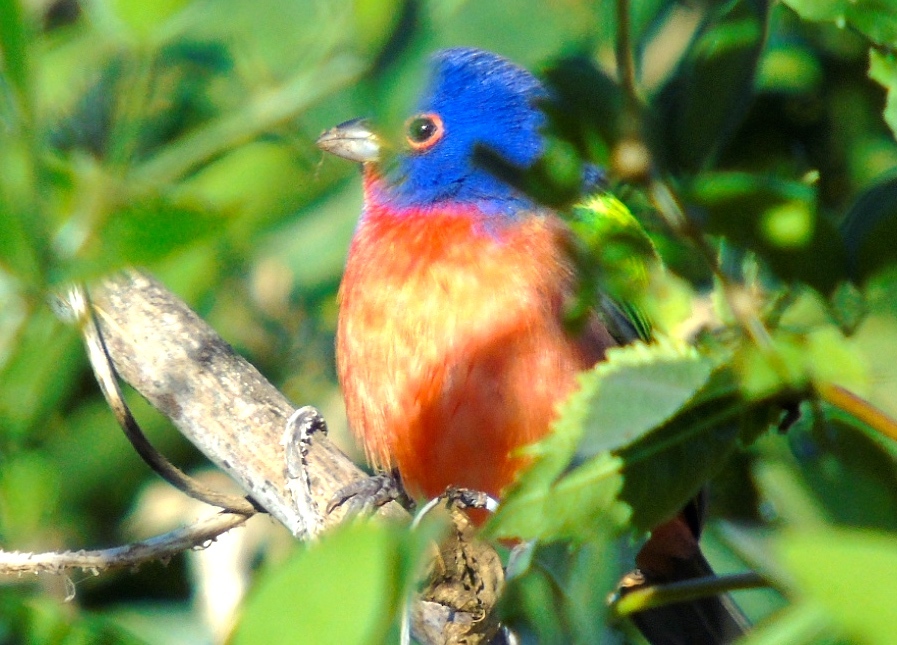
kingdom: Animalia
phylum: Chordata
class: Aves
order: Passeriformes
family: Cardinalidae
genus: Passerina
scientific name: Passerina ciris
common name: Painted bunting
